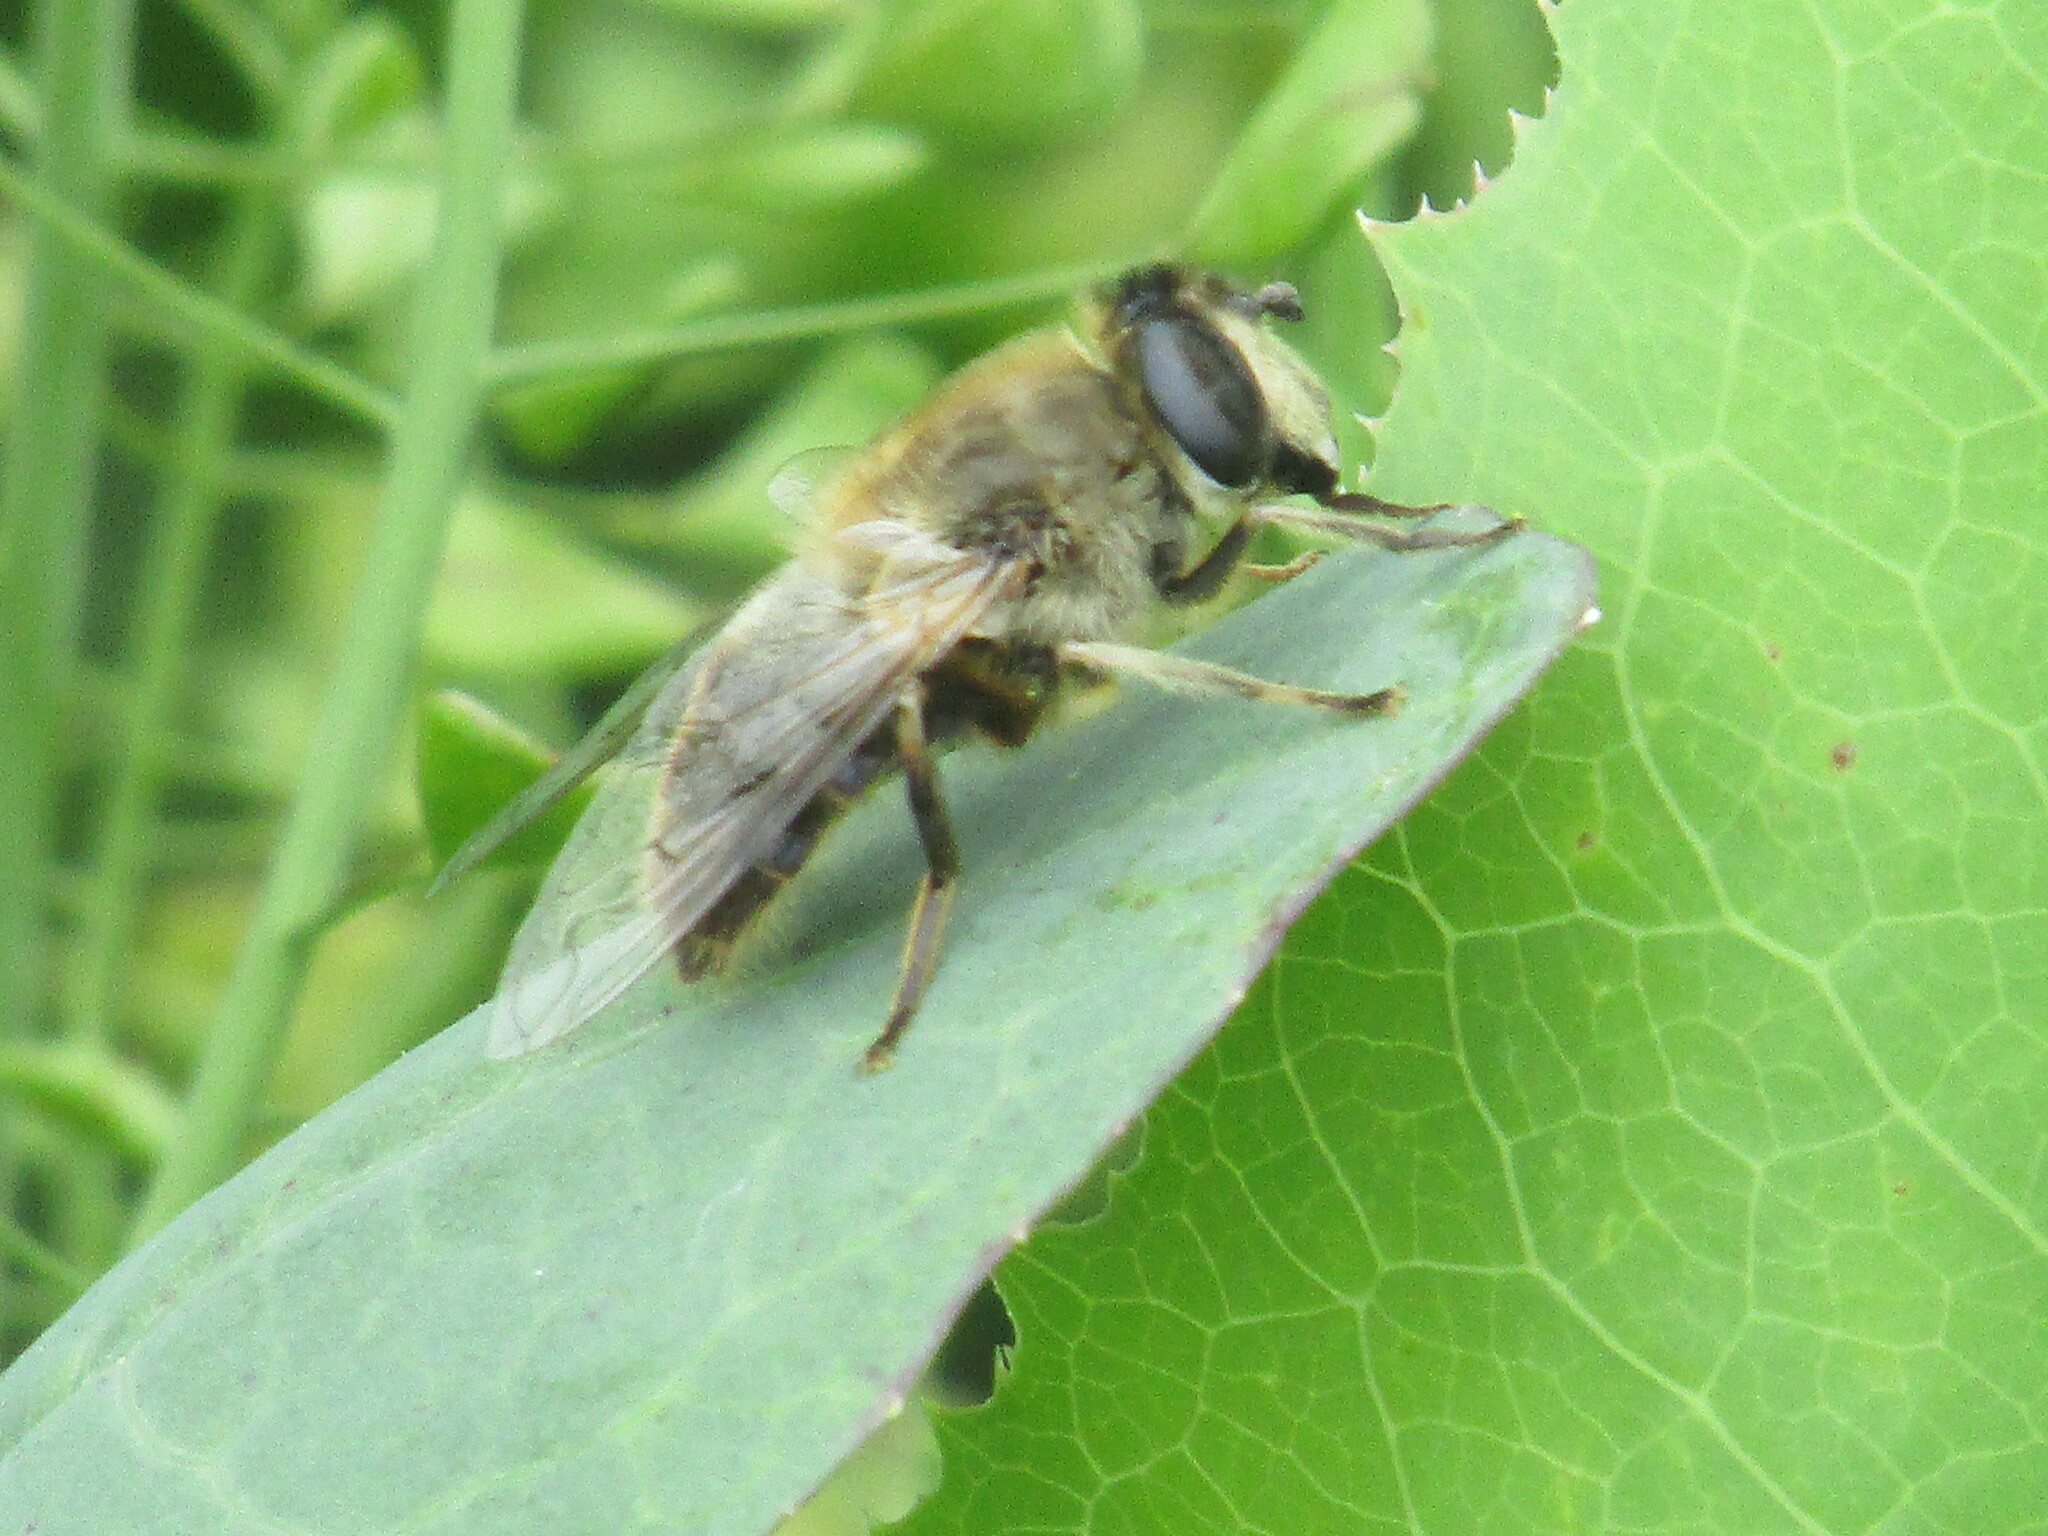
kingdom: Animalia
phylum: Arthropoda
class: Insecta
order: Diptera
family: Syrphidae
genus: Eristalis
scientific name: Eristalis tenax
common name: Drone fly
